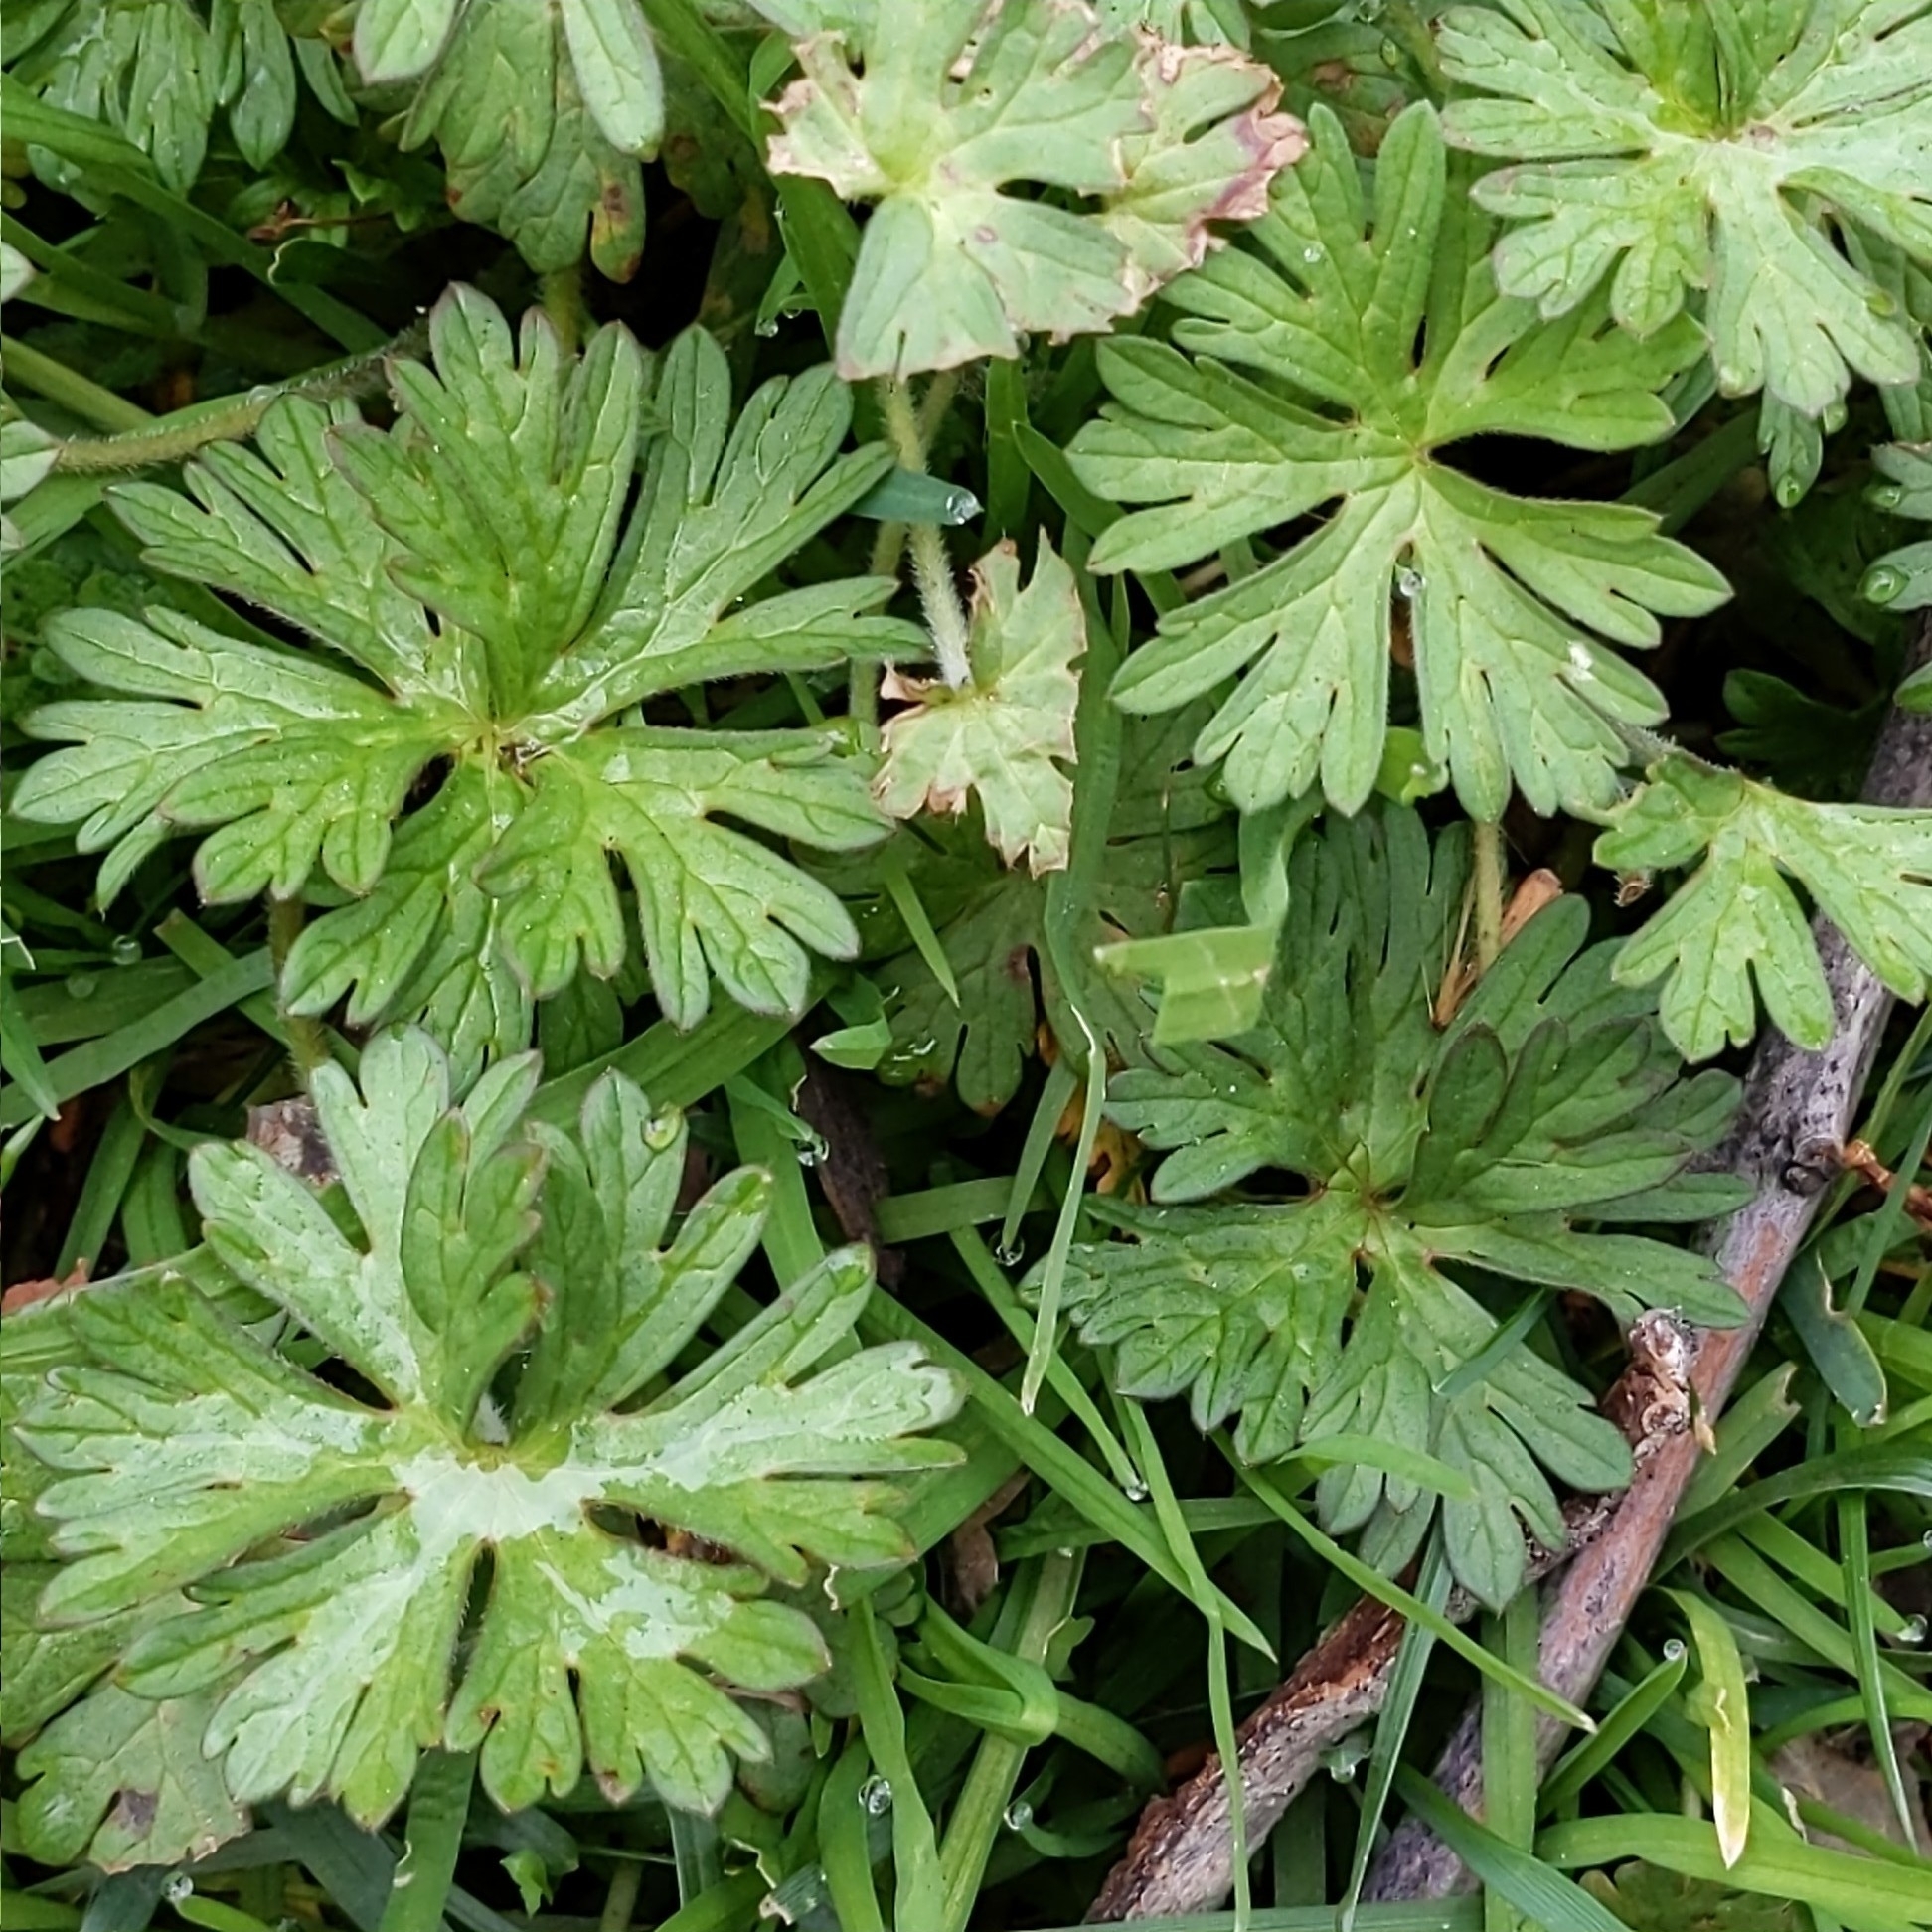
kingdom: Plantae
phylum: Tracheophyta
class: Magnoliopsida
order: Geraniales
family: Geraniaceae
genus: Geranium
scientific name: Geranium
